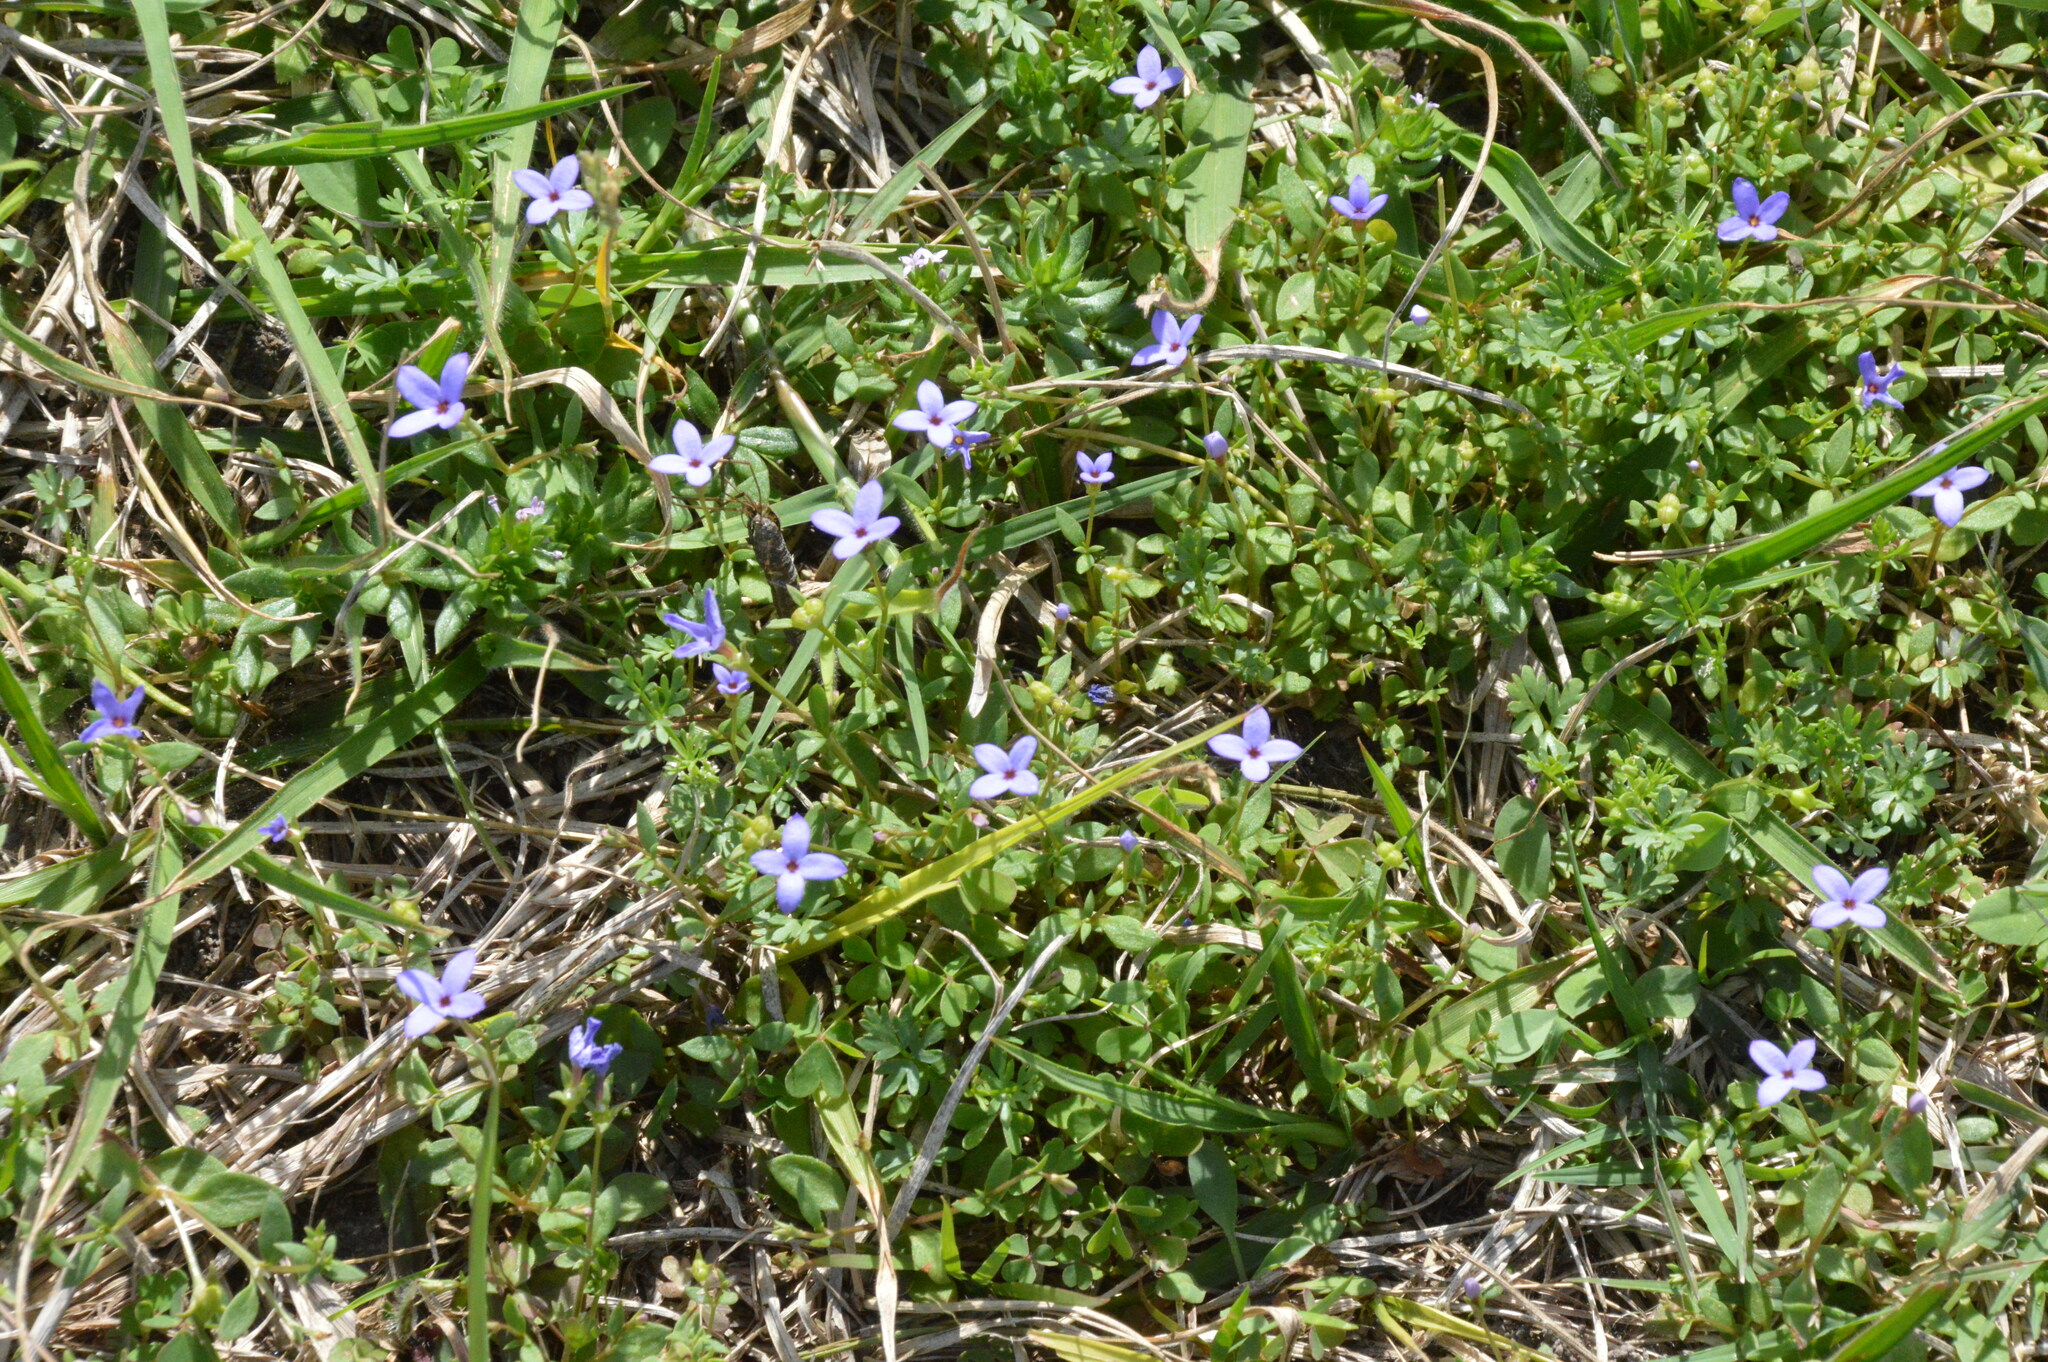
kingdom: Plantae
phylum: Tracheophyta
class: Magnoliopsida
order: Gentianales
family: Rubiaceae
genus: Houstonia
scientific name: Houstonia pusilla
